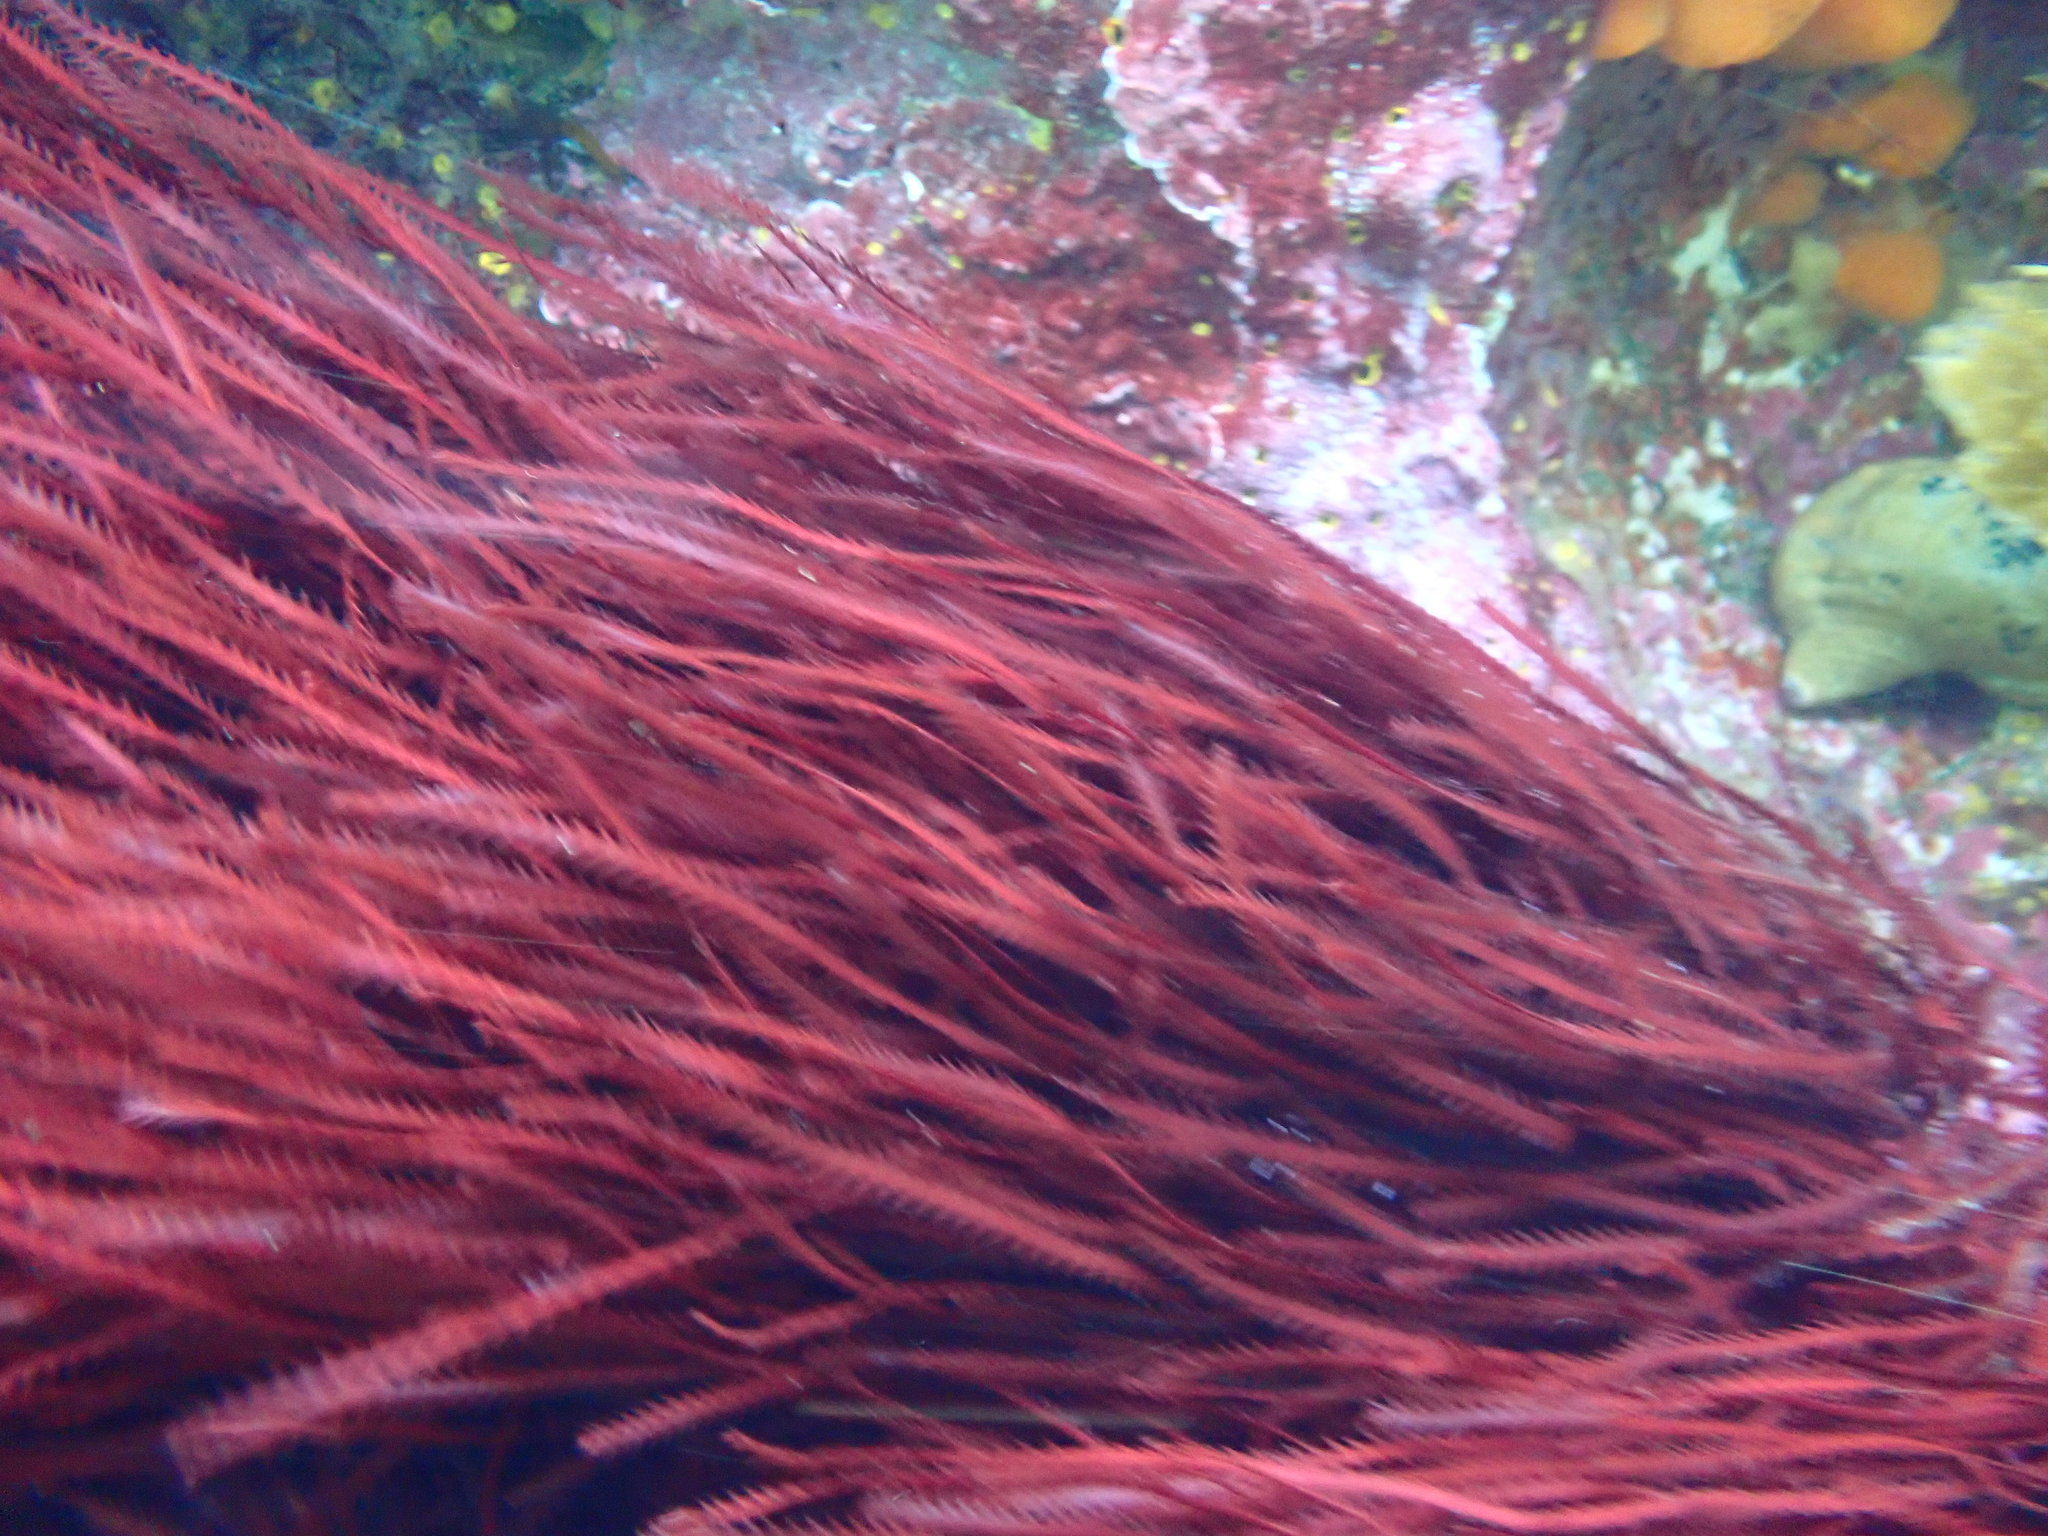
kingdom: Plantae
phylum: Rhodophyta
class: Florideophyceae
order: Ceramiales
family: Rhodomelaceae
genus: Vidalia
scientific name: Vidalia colensoi
